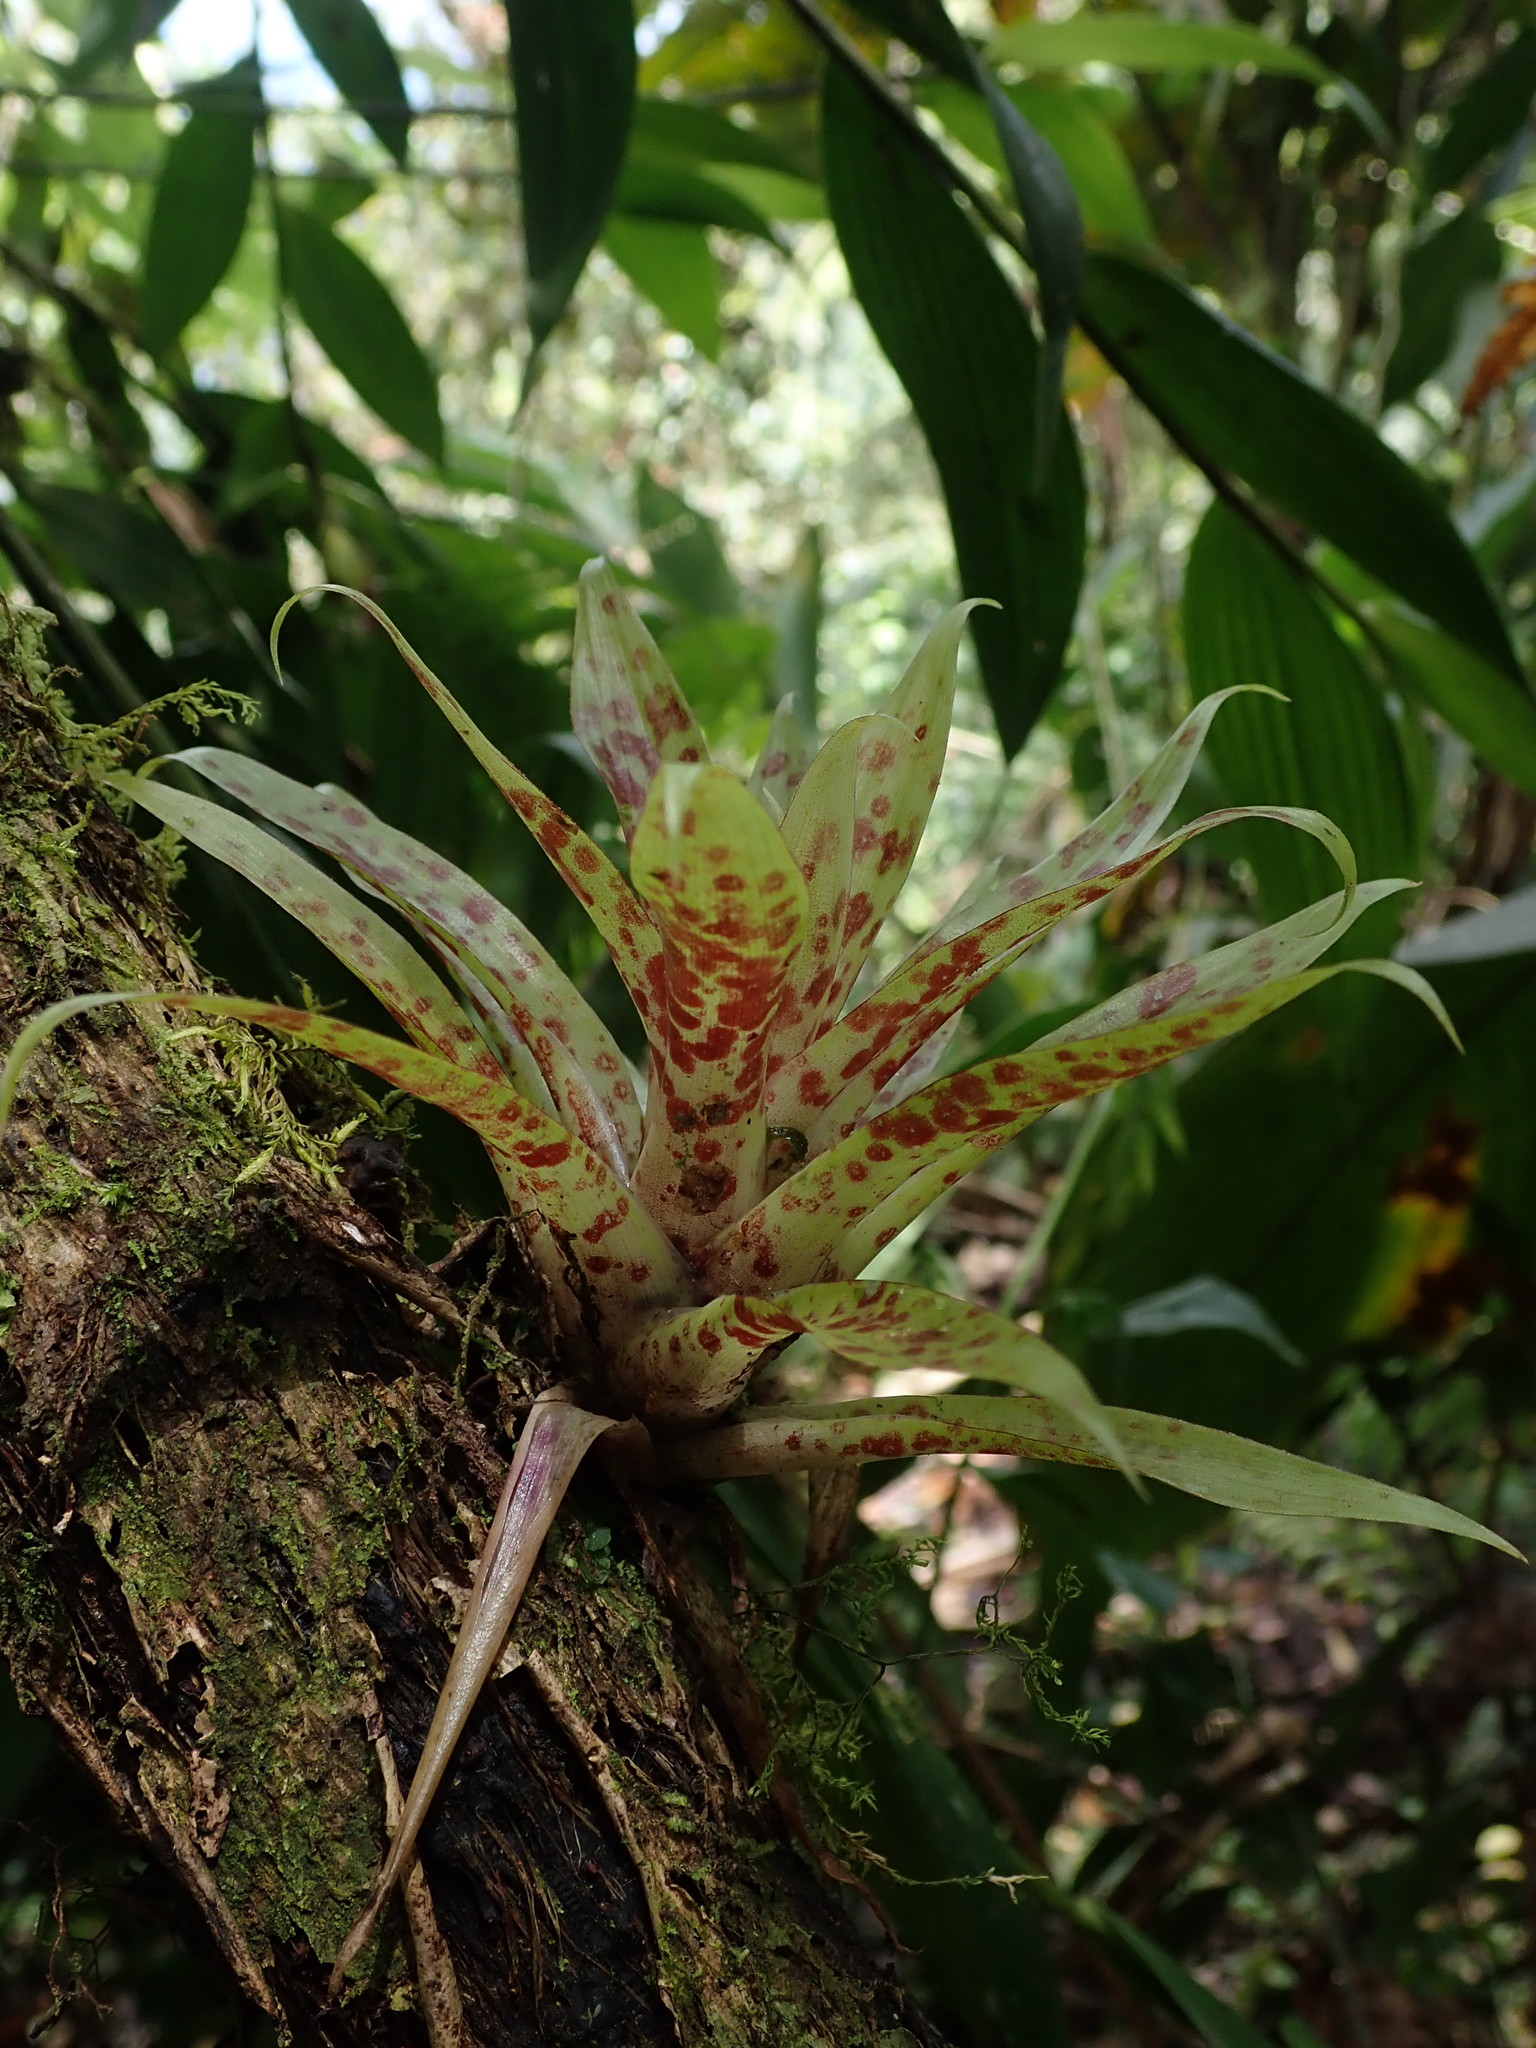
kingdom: Plantae
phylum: Tracheophyta
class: Liliopsida
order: Poales
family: Bromeliaceae
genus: Tillandsia
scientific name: Tillandsia biflora
